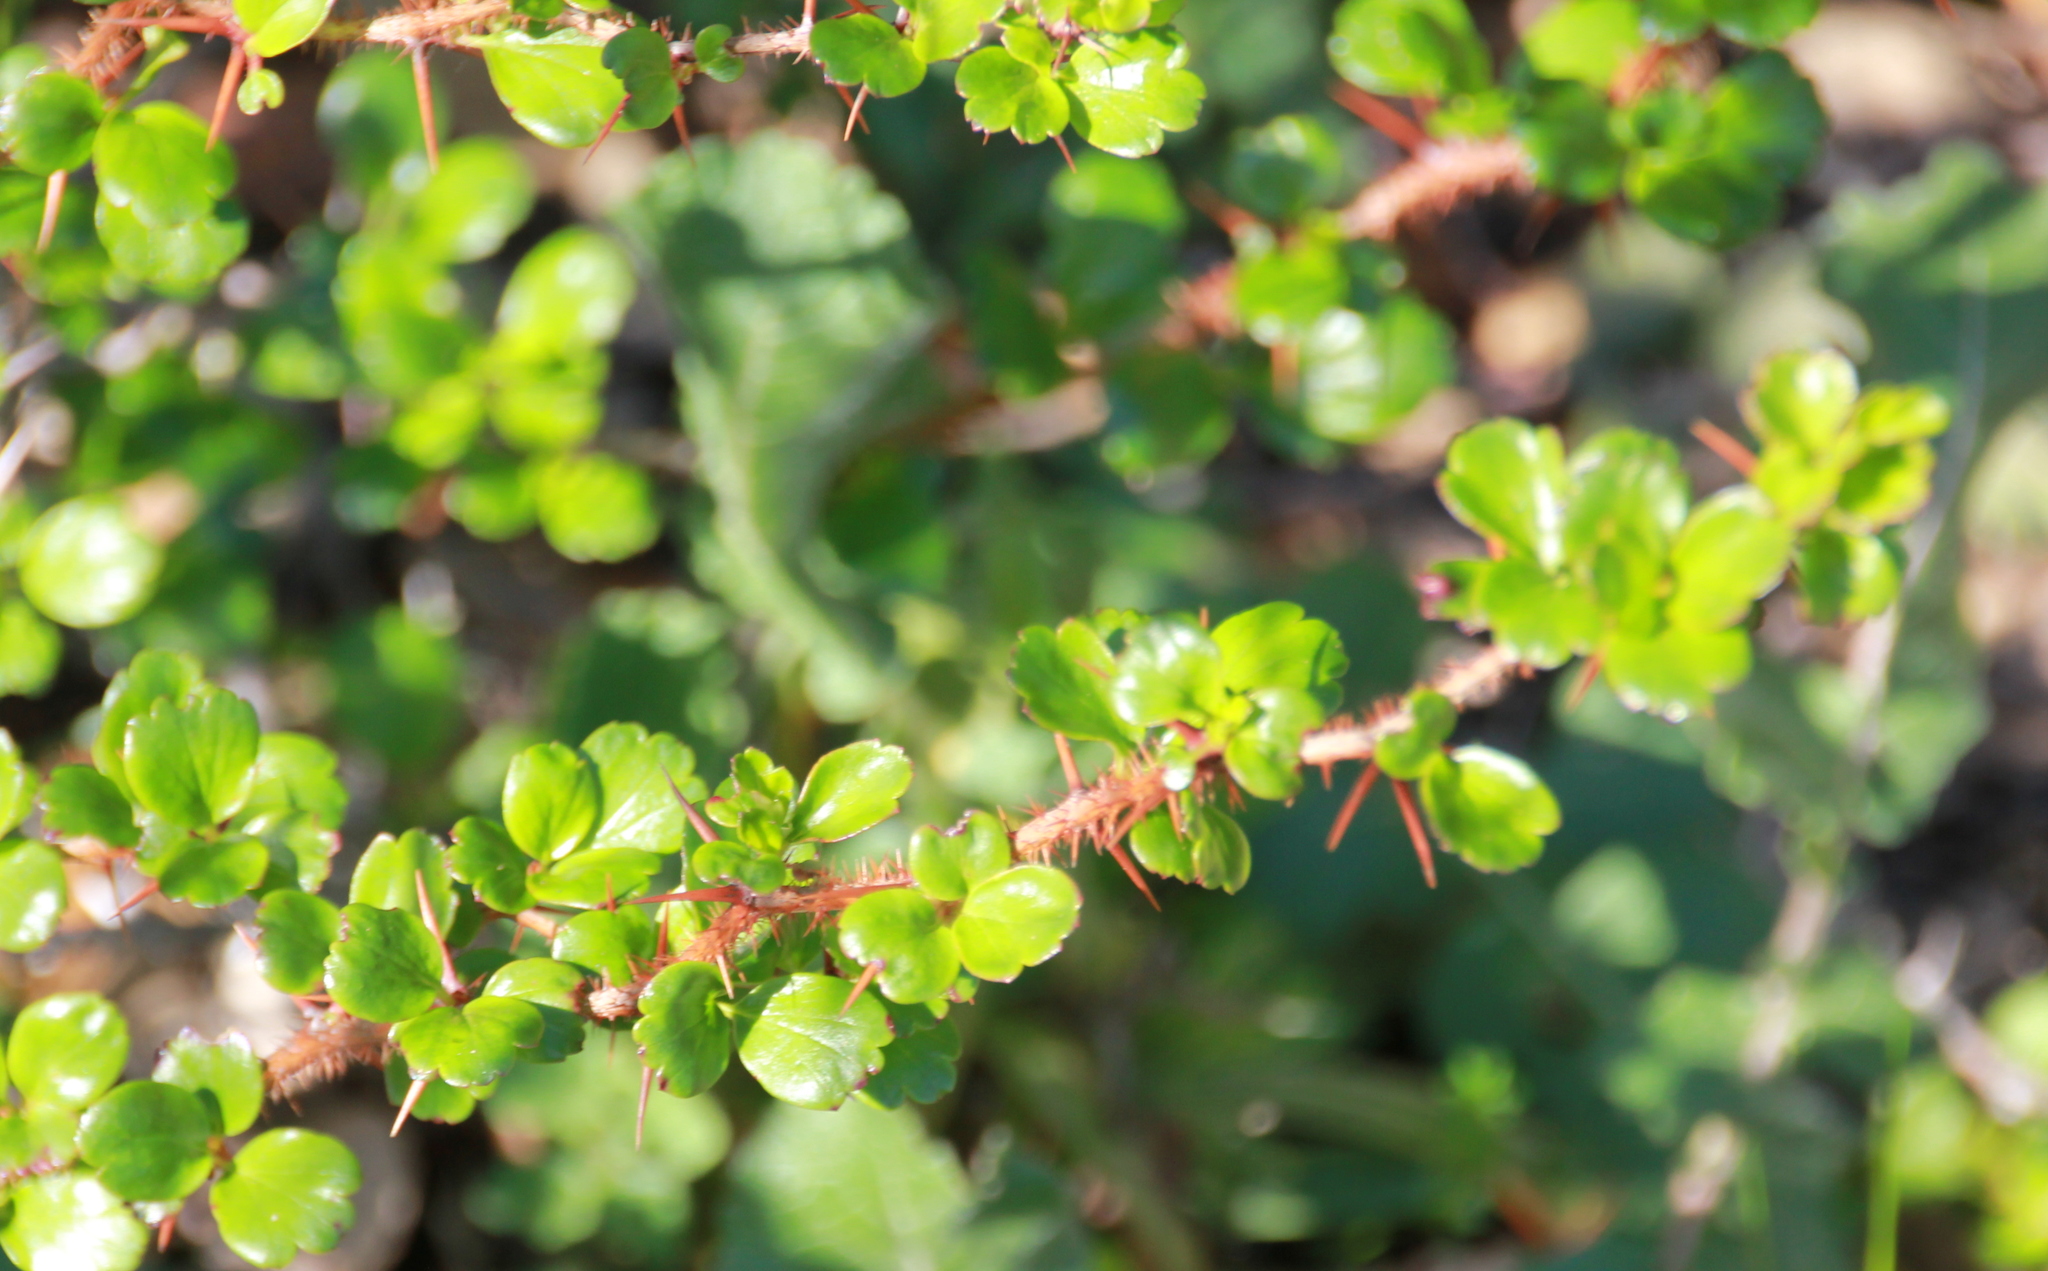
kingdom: Plantae
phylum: Tracheophyta
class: Magnoliopsida
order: Saxifragales
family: Grossulariaceae
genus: Ribes
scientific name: Ribes speciosum
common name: Fuchsia-flower gooseberry
